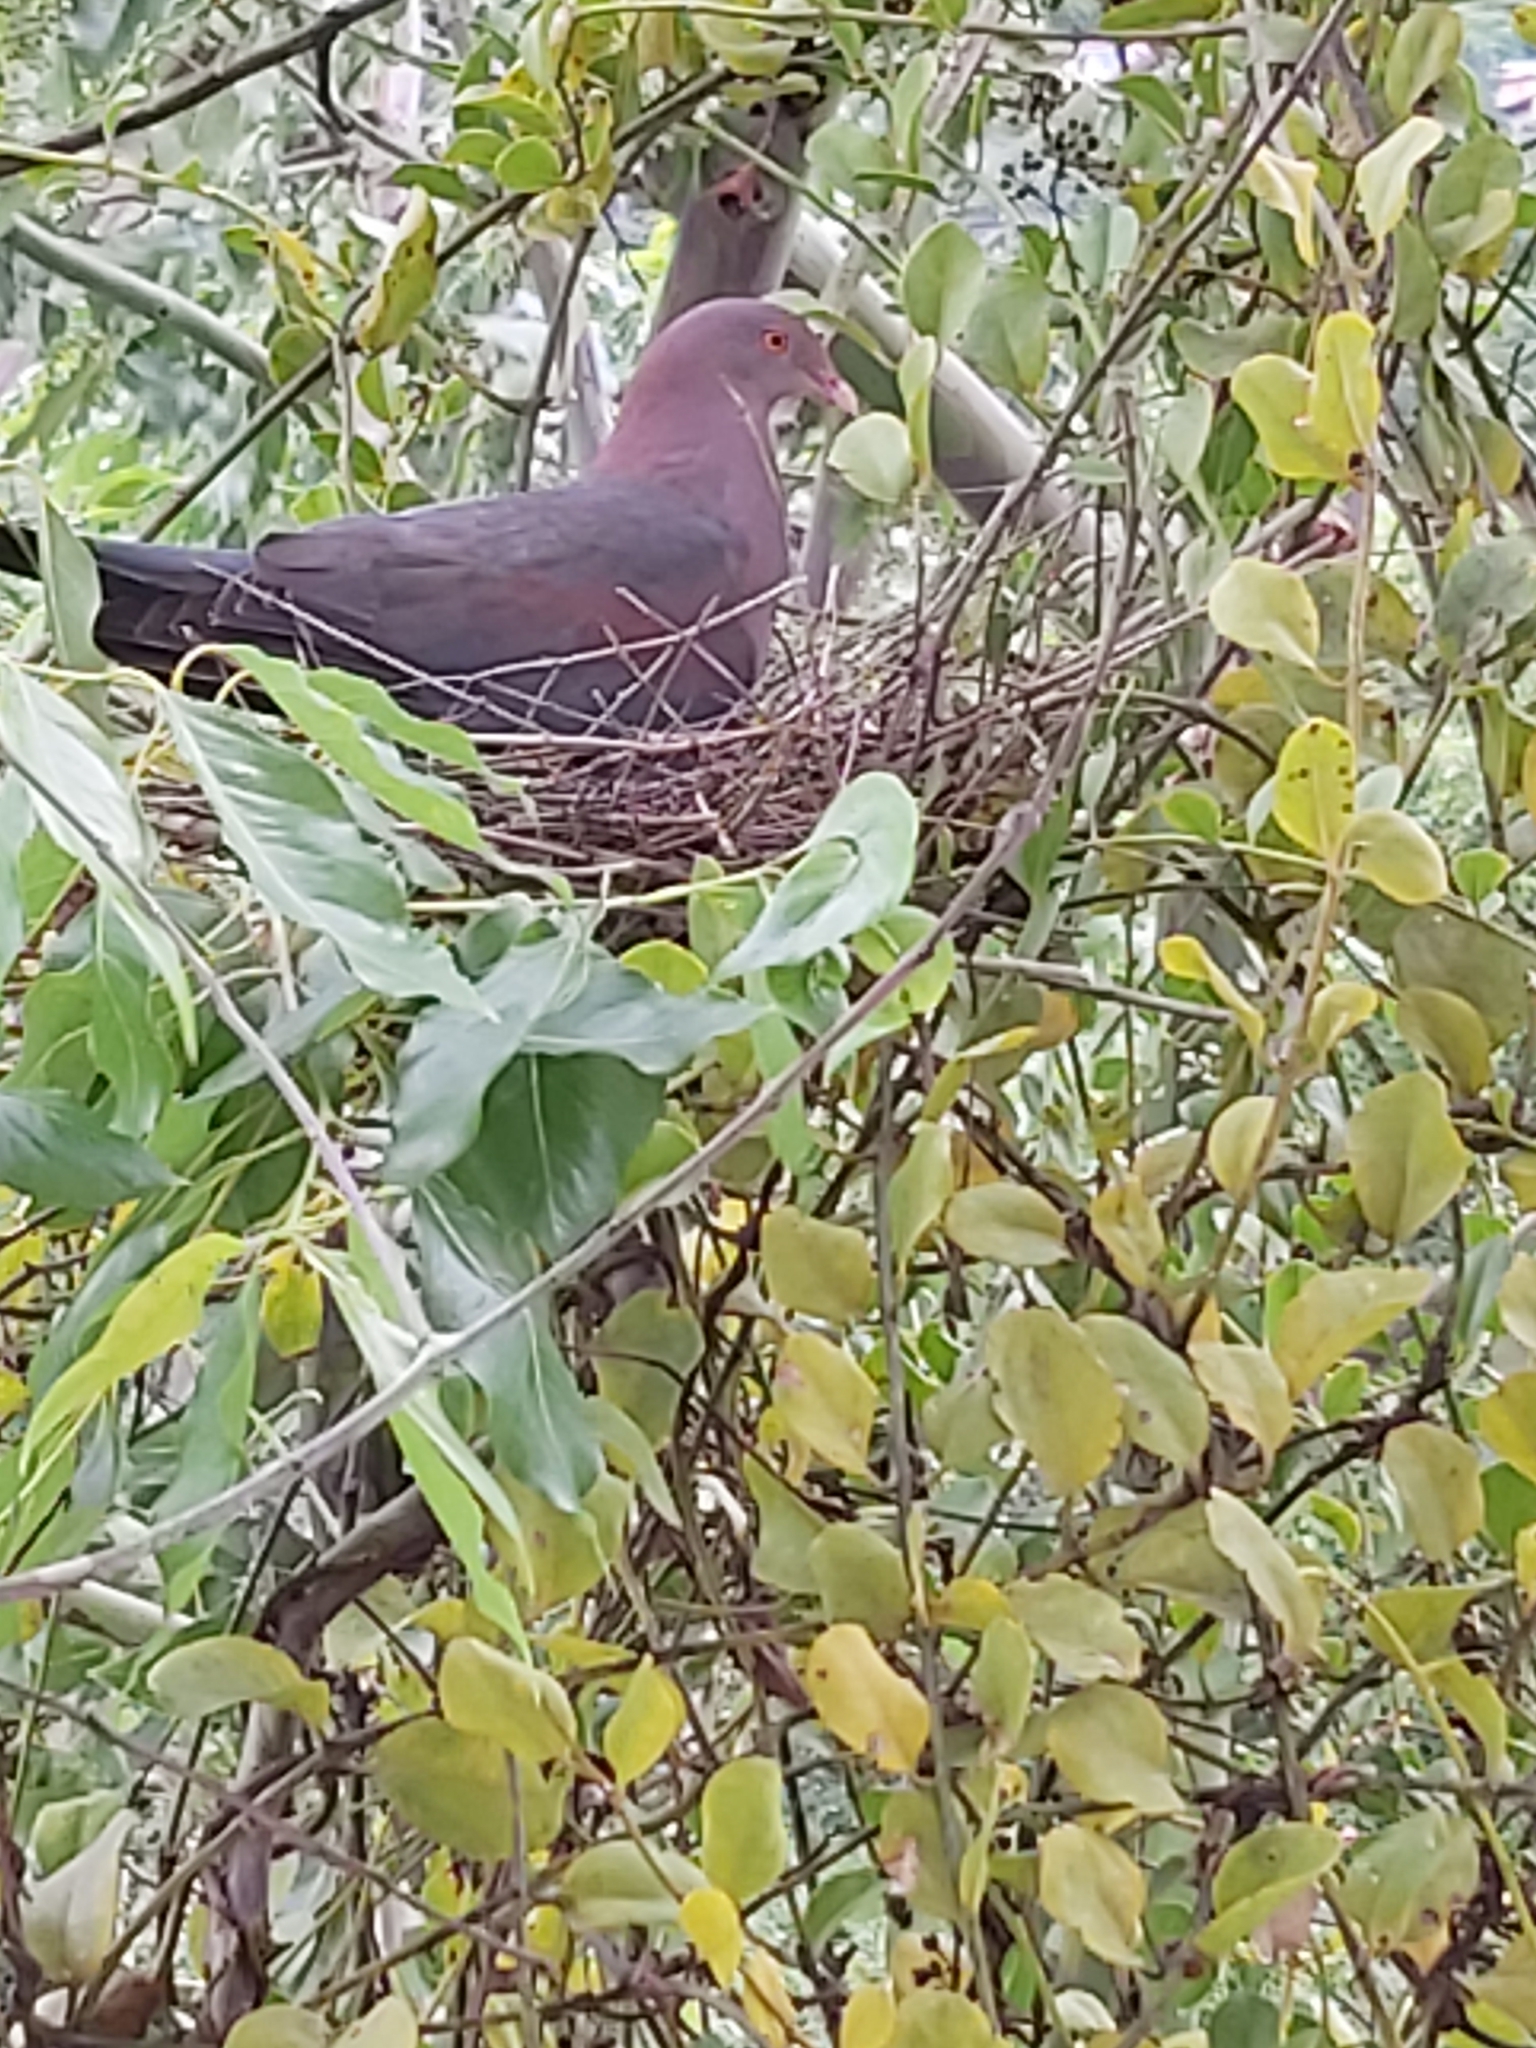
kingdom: Animalia
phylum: Chordata
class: Aves
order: Columbiformes
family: Columbidae
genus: Patagioenas
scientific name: Patagioenas flavirostris
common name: Red-billed pigeon
